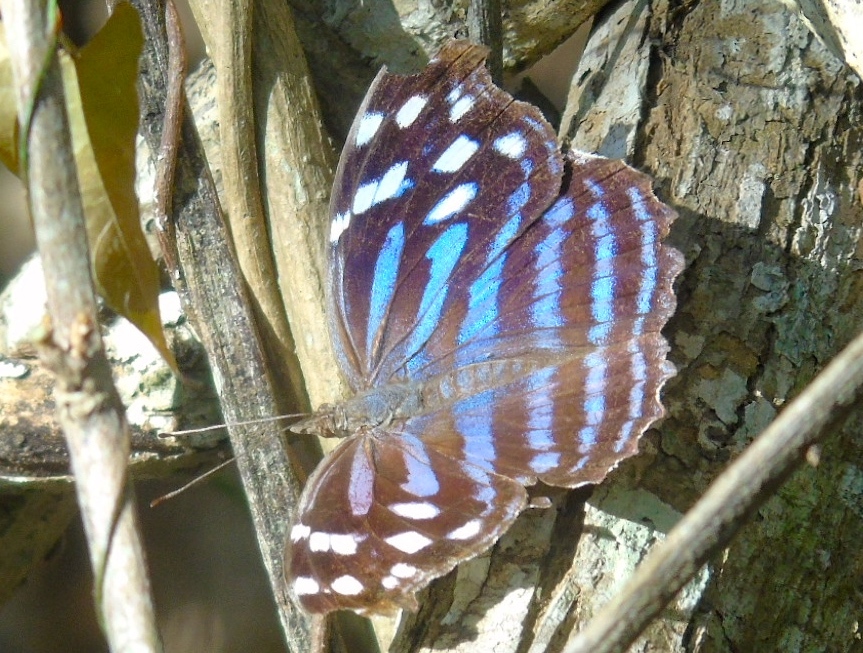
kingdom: Animalia
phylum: Arthropoda
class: Insecta
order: Lepidoptera
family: Nymphalidae
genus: Myscelia
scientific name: Myscelia ethusa
